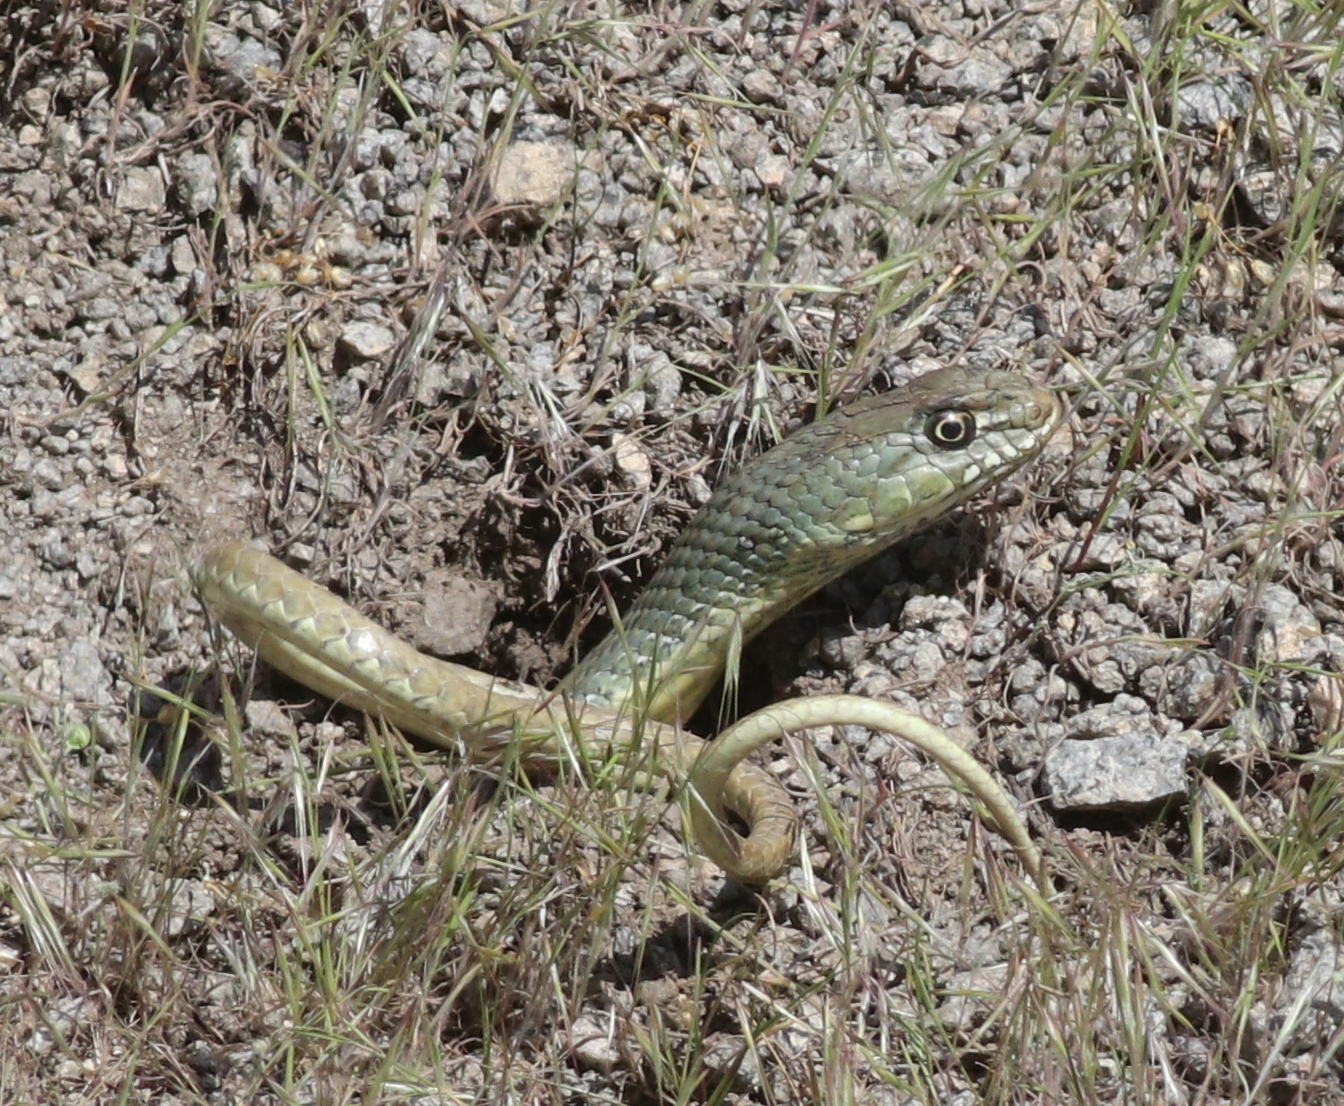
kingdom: Animalia
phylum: Chordata
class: Squamata
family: Psammophiidae
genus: Malpolon
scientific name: Malpolon insignitus
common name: Eastern montpellier snake
